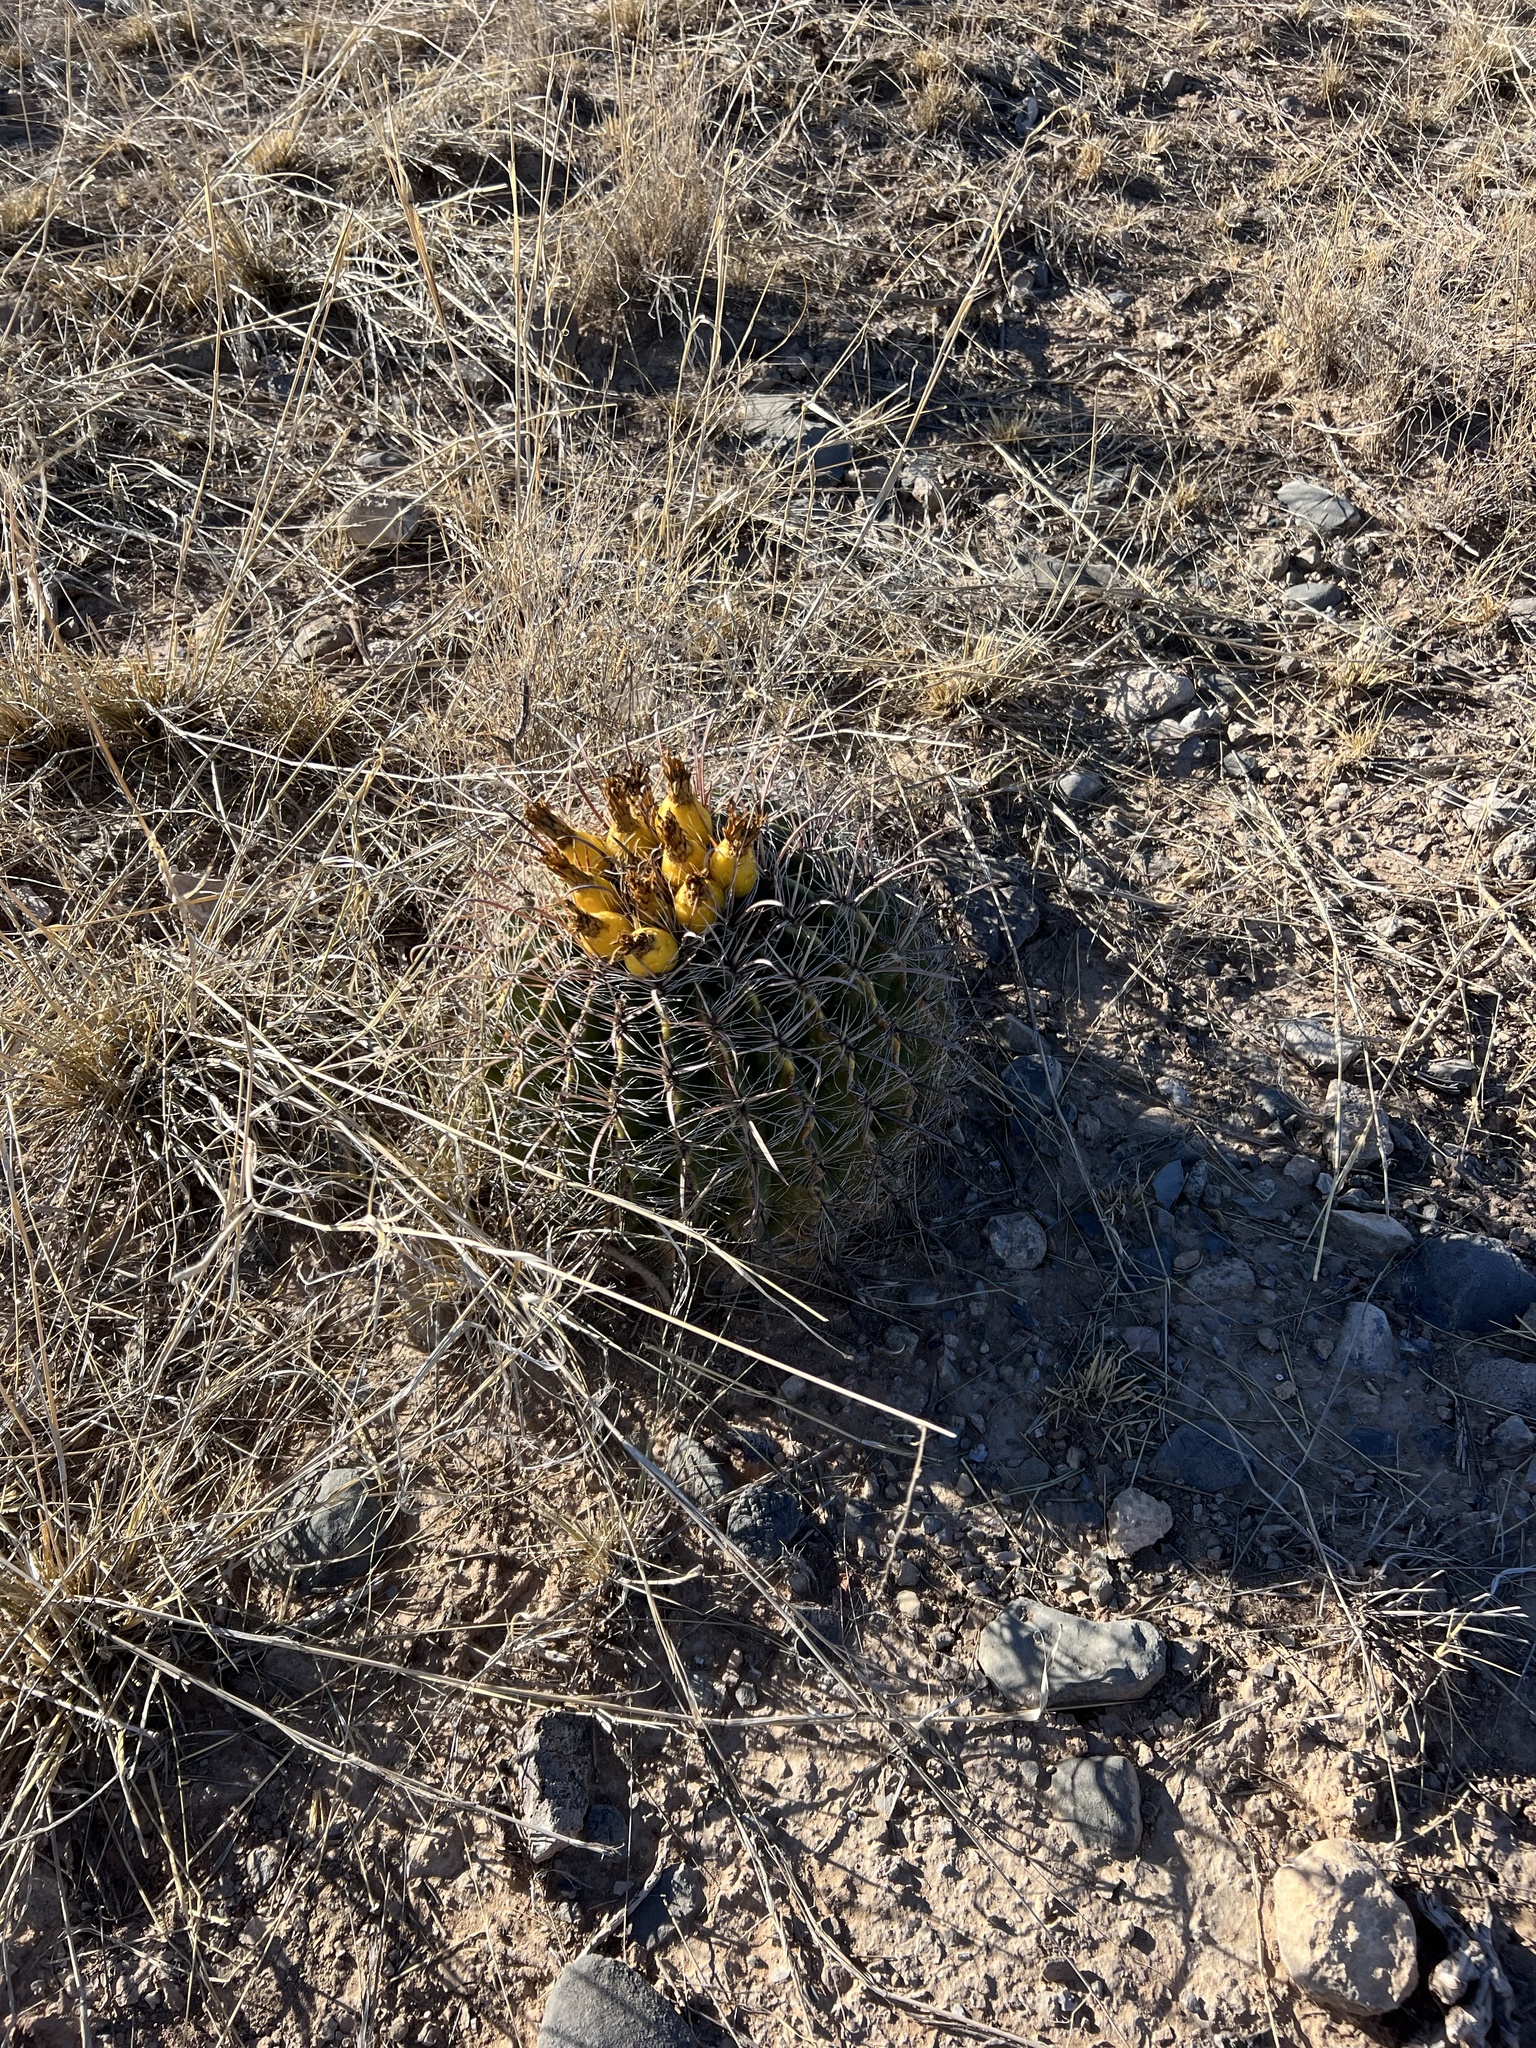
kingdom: Plantae
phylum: Tracheophyta
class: Magnoliopsida
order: Caryophyllales
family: Cactaceae
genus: Ferocactus
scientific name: Ferocactus wislizeni
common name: Candy barrel cactus
